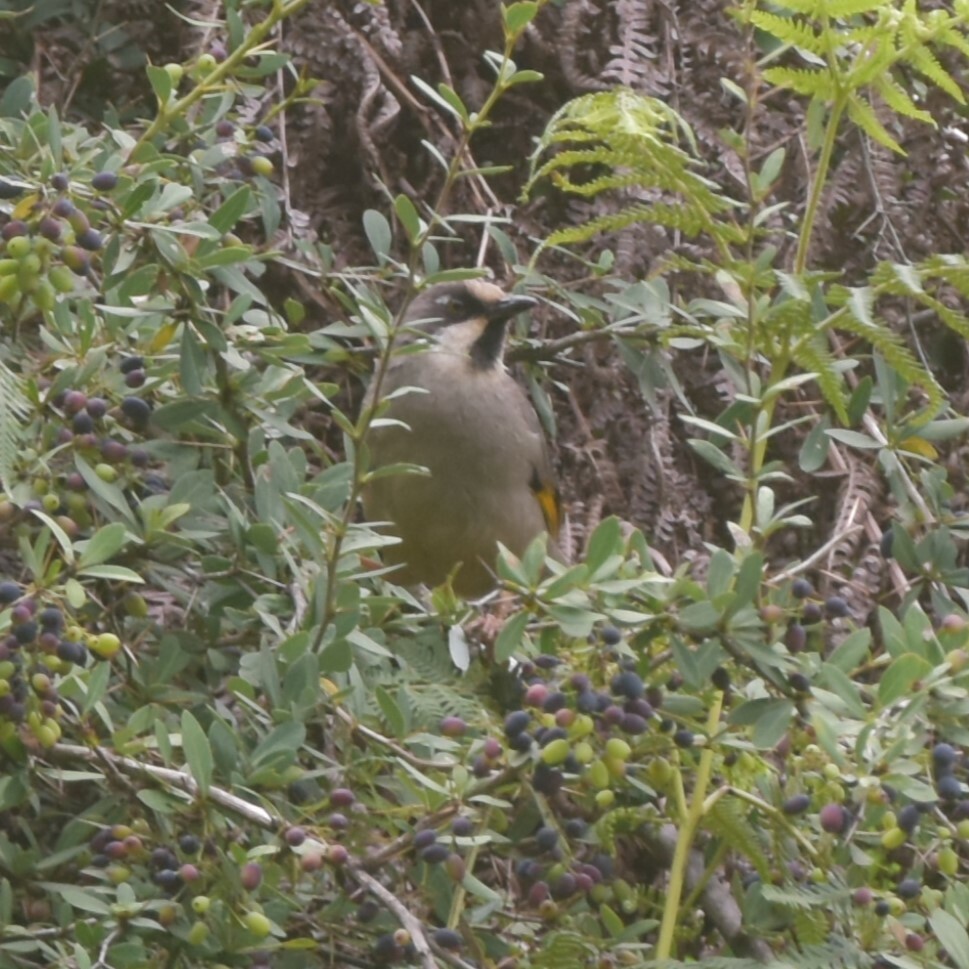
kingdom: Animalia
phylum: Chordata
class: Aves
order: Passeriformes
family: Leiothrichidae
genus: Trochalopteron
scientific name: Trochalopteron variegatum
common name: Variegated laughingthrush
